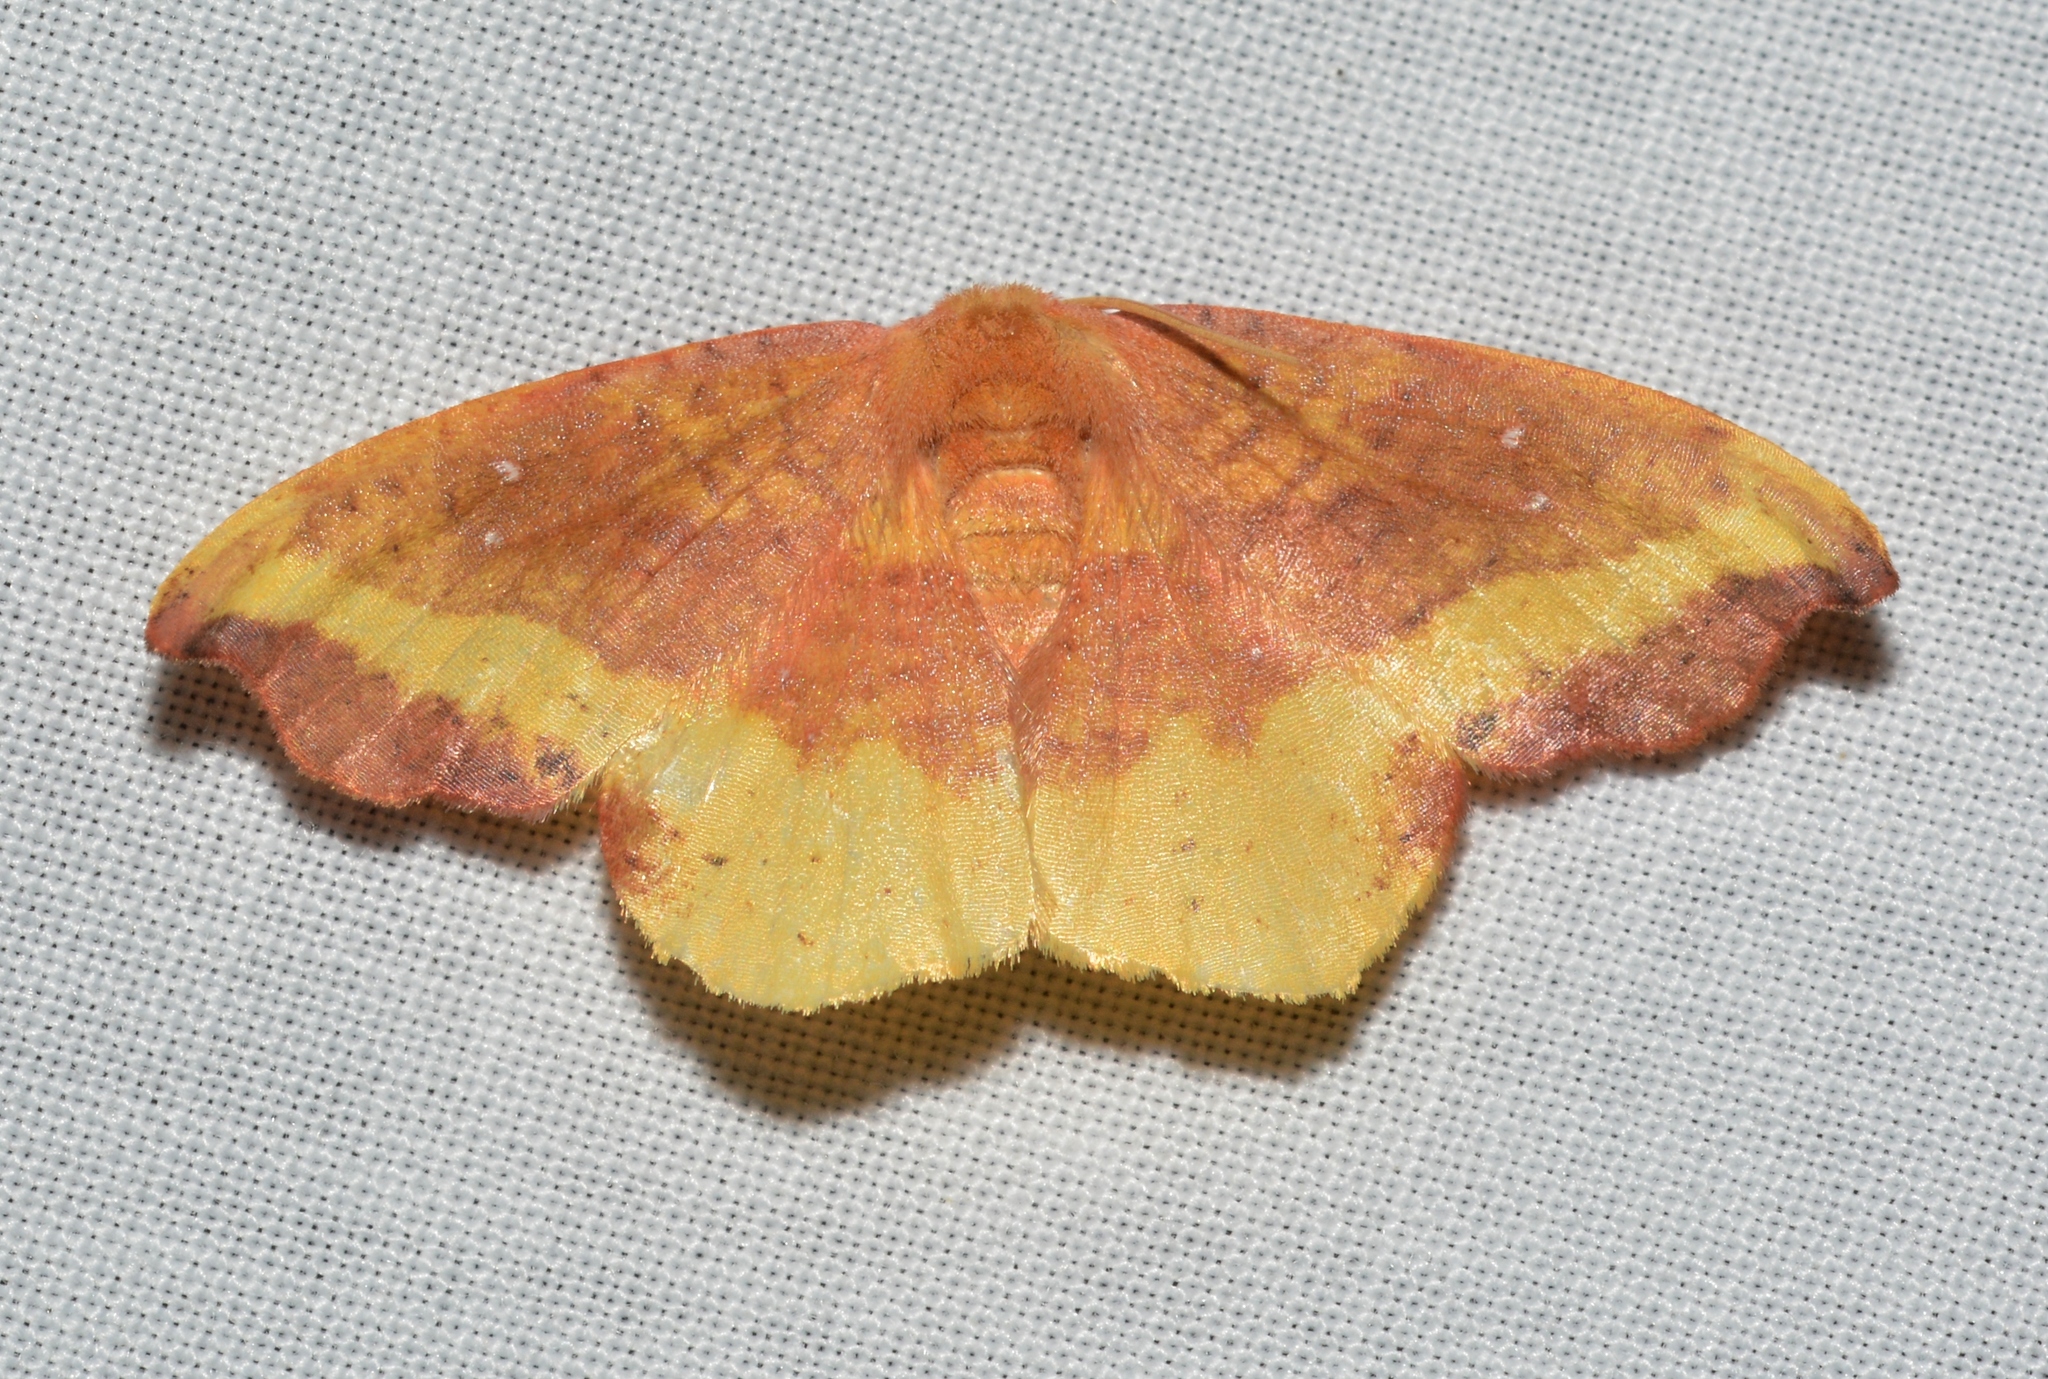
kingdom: Animalia
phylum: Arthropoda
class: Insecta
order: Lepidoptera
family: Drepanidae
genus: Oreta
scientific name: Oreta rosea
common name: Rose hooktip
